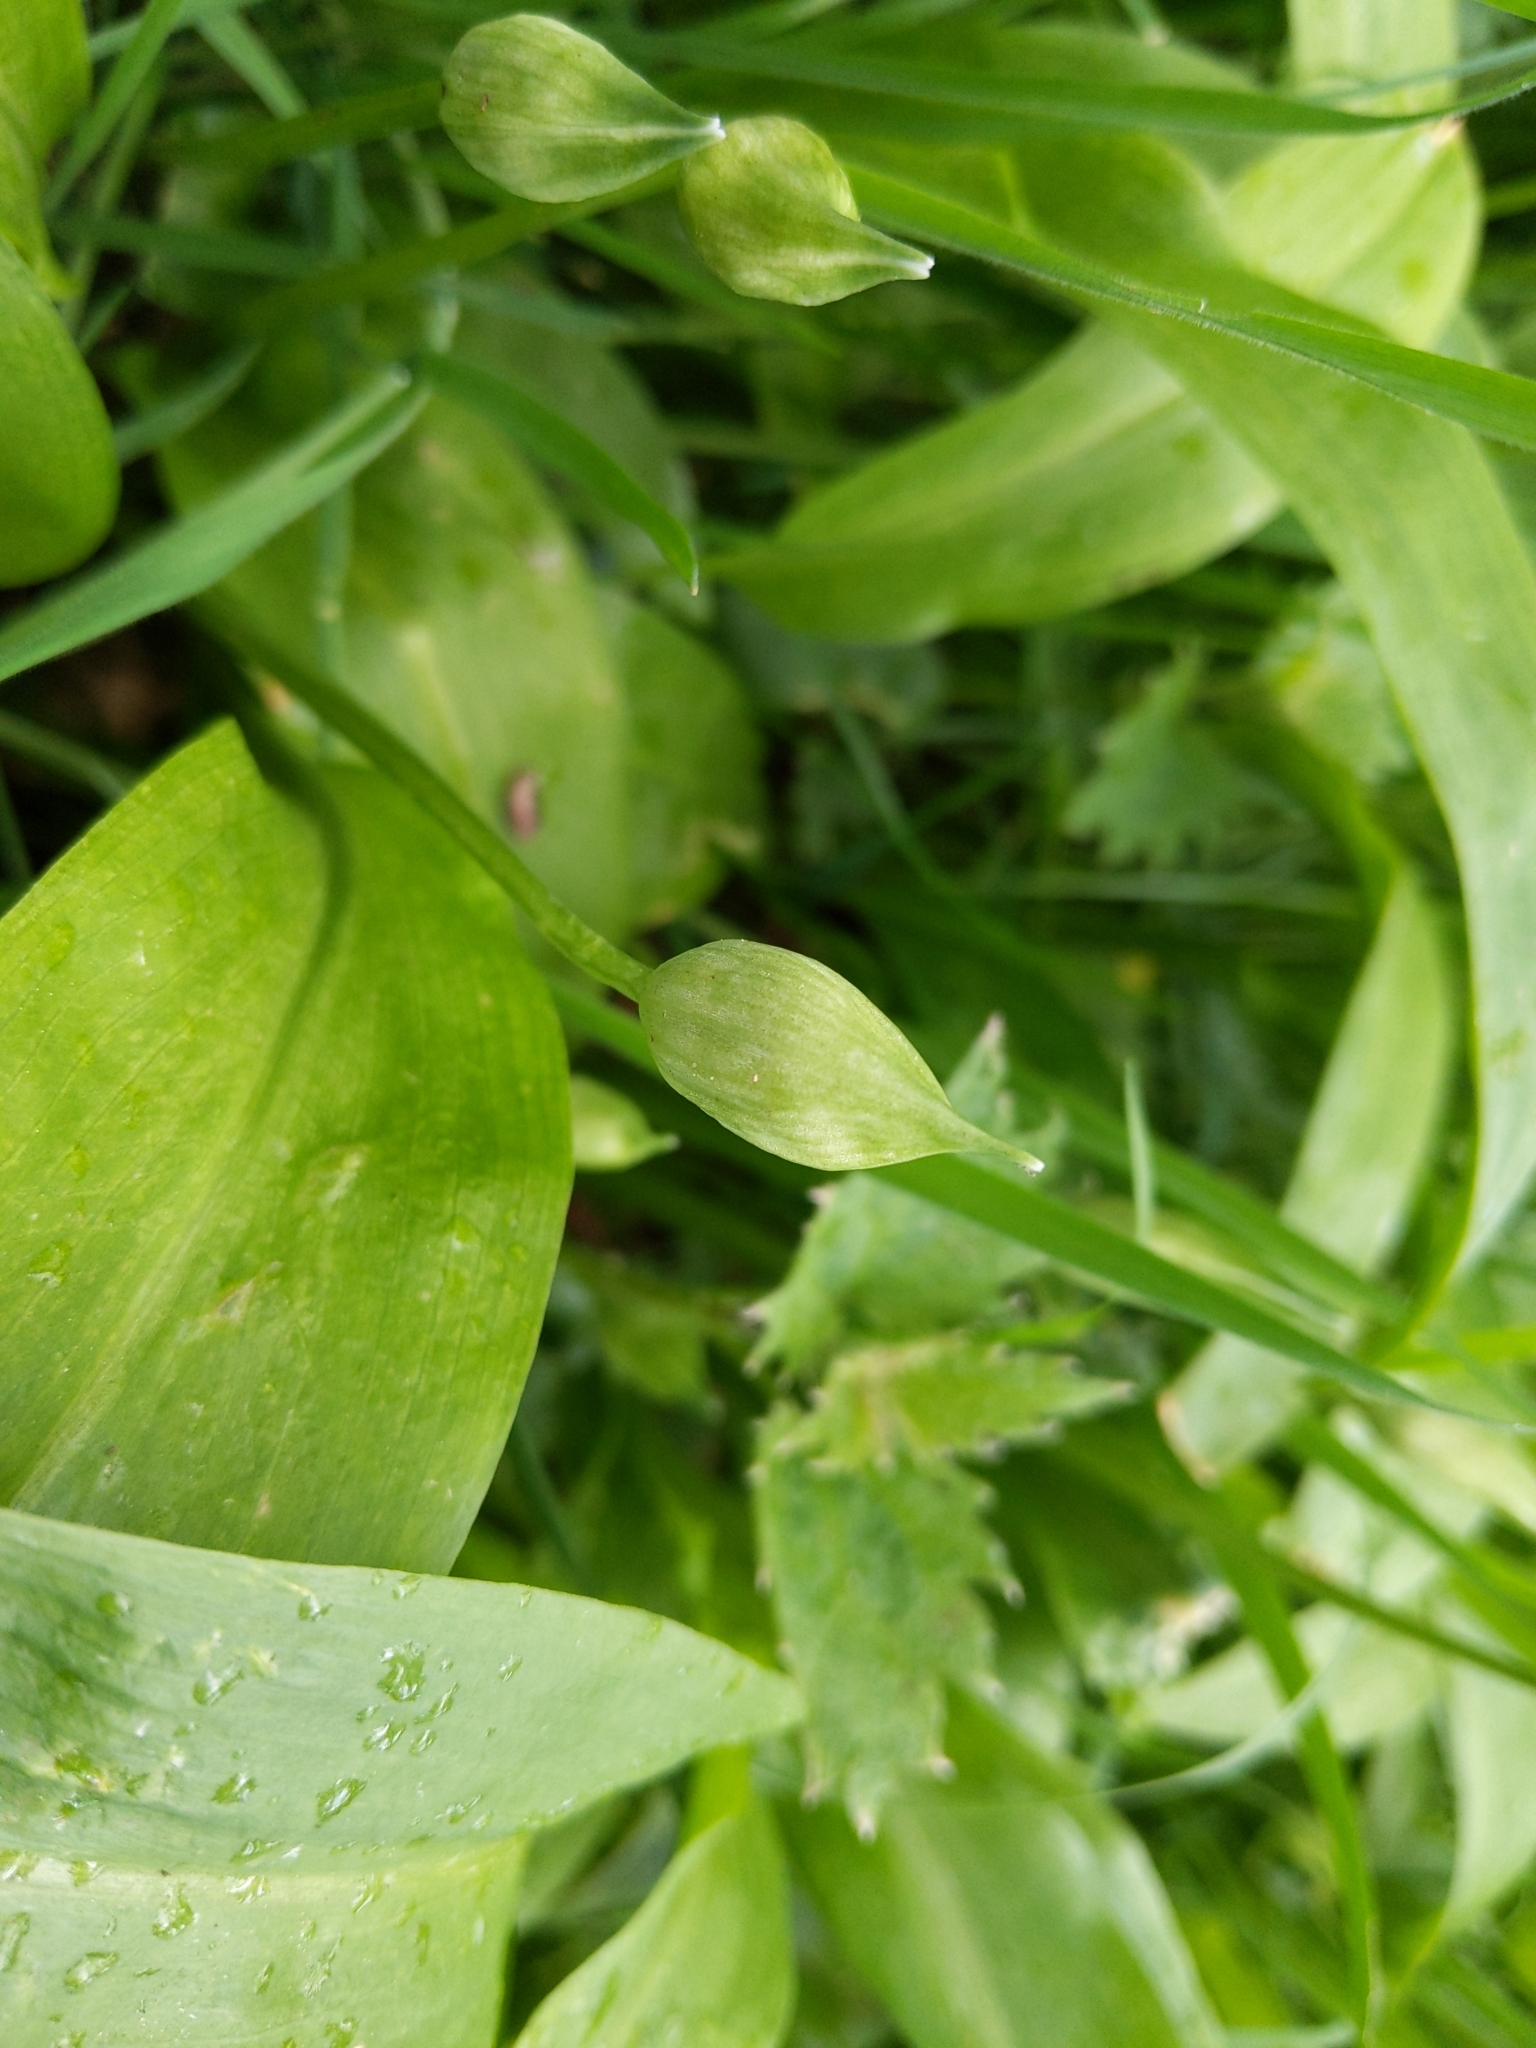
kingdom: Plantae
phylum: Tracheophyta
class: Liliopsida
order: Asparagales
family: Amaryllidaceae
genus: Allium
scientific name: Allium ursinum
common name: Ramsons
